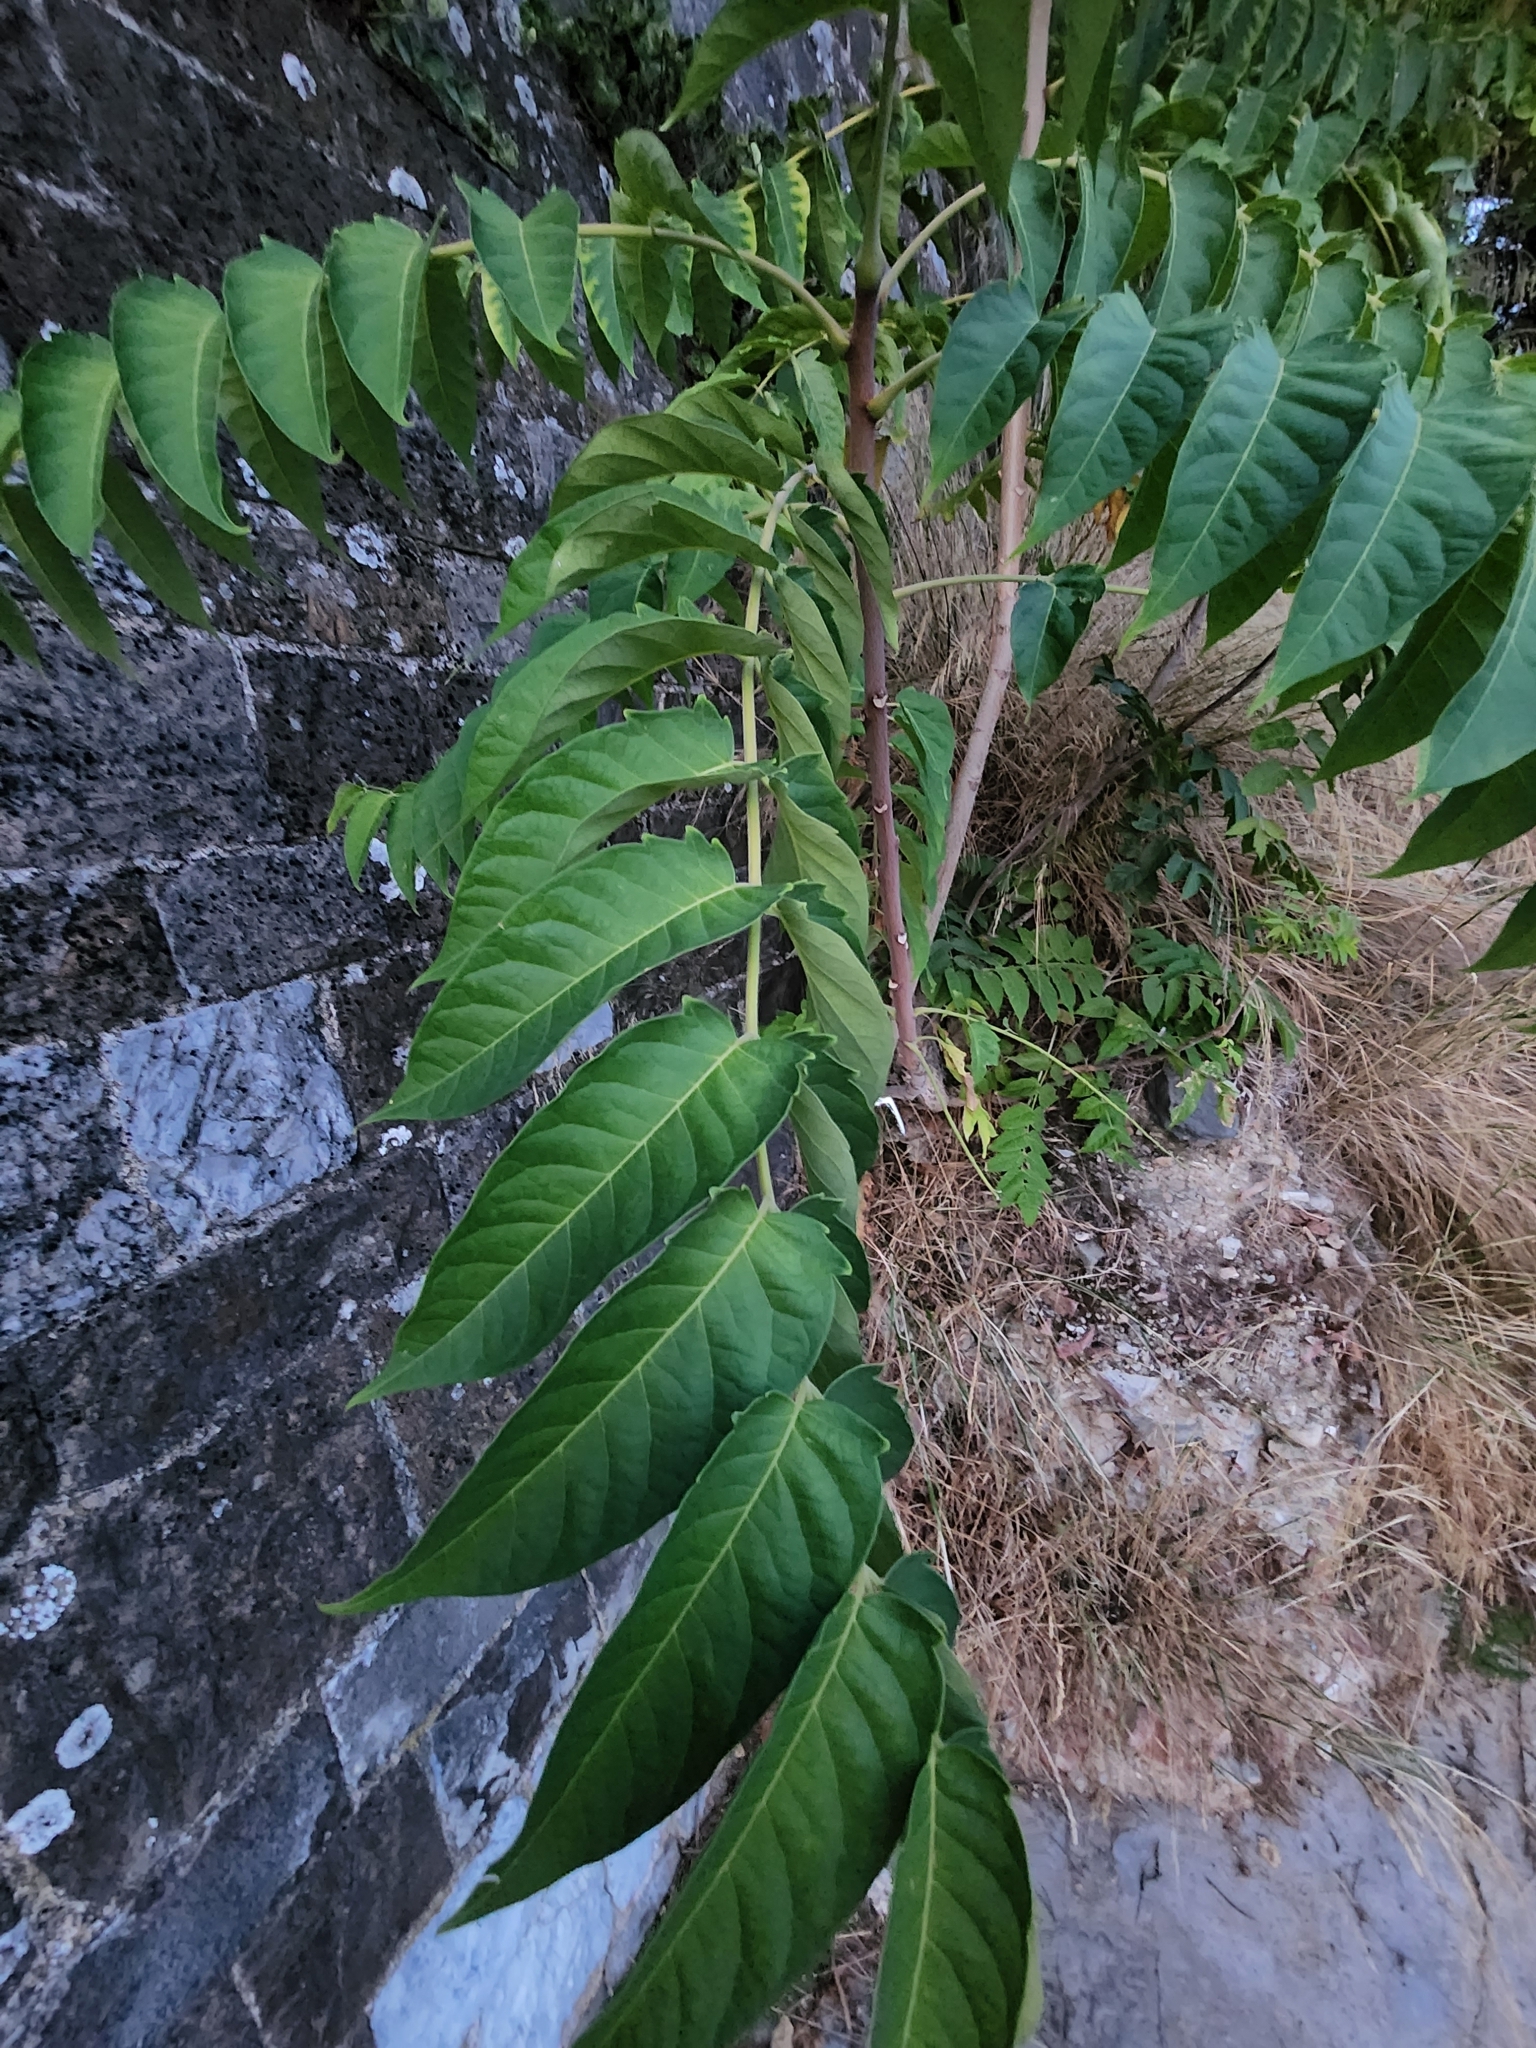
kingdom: Plantae
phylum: Tracheophyta
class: Magnoliopsida
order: Sapindales
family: Simaroubaceae
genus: Ailanthus
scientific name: Ailanthus altissima
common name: Tree-of-heaven
